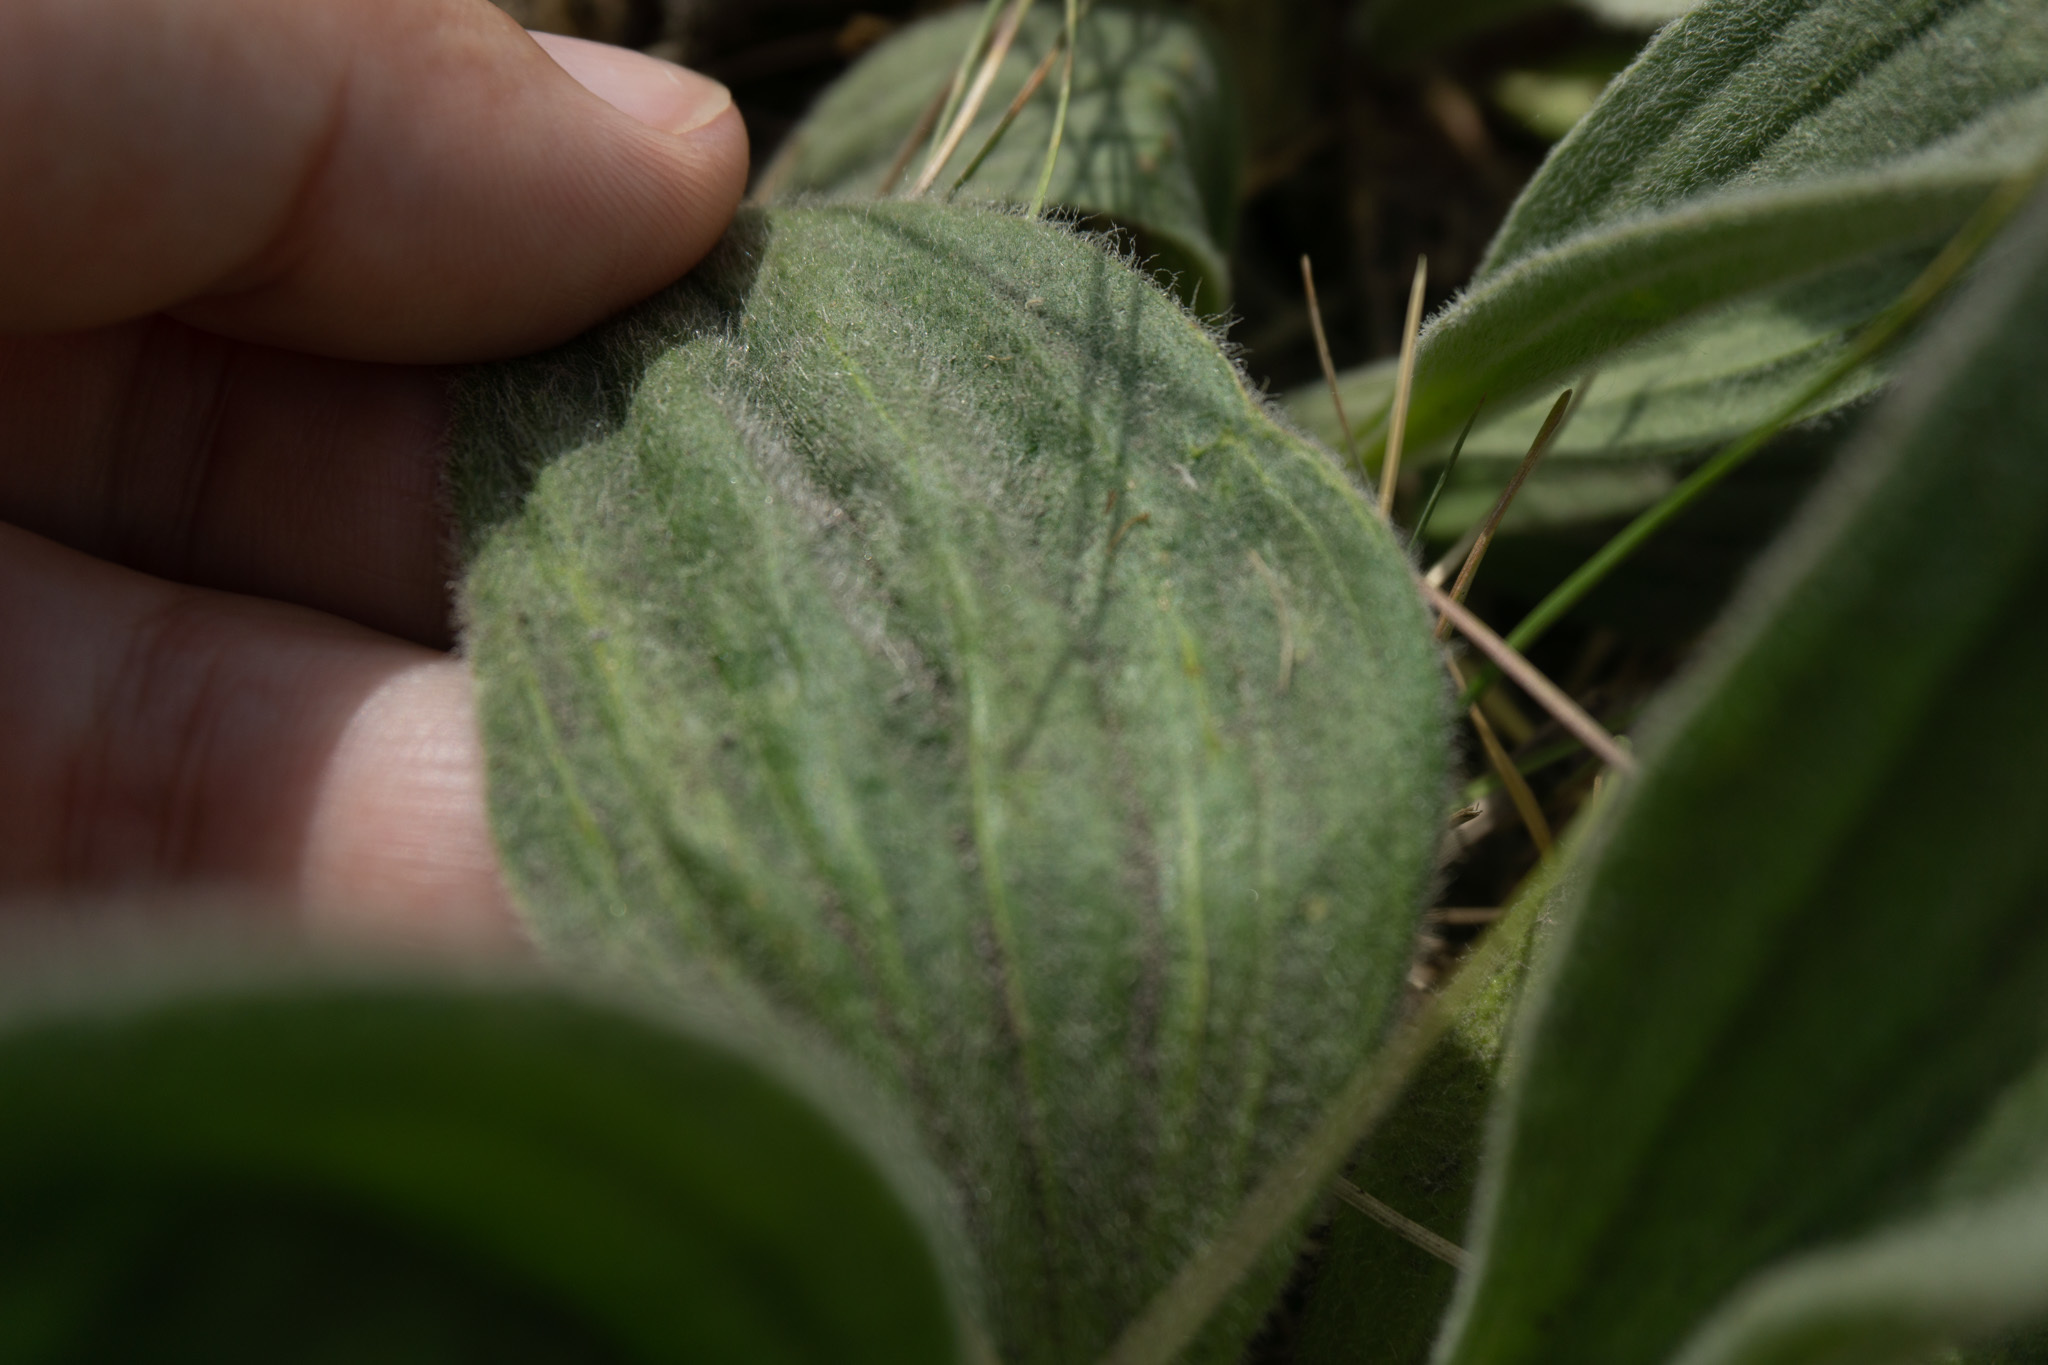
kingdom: Plantae
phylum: Tracheophyta
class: Magnoliopsida
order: Lamiales
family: Plantaginaceae
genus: Plantago
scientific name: Plantago media
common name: Hoary plantain
